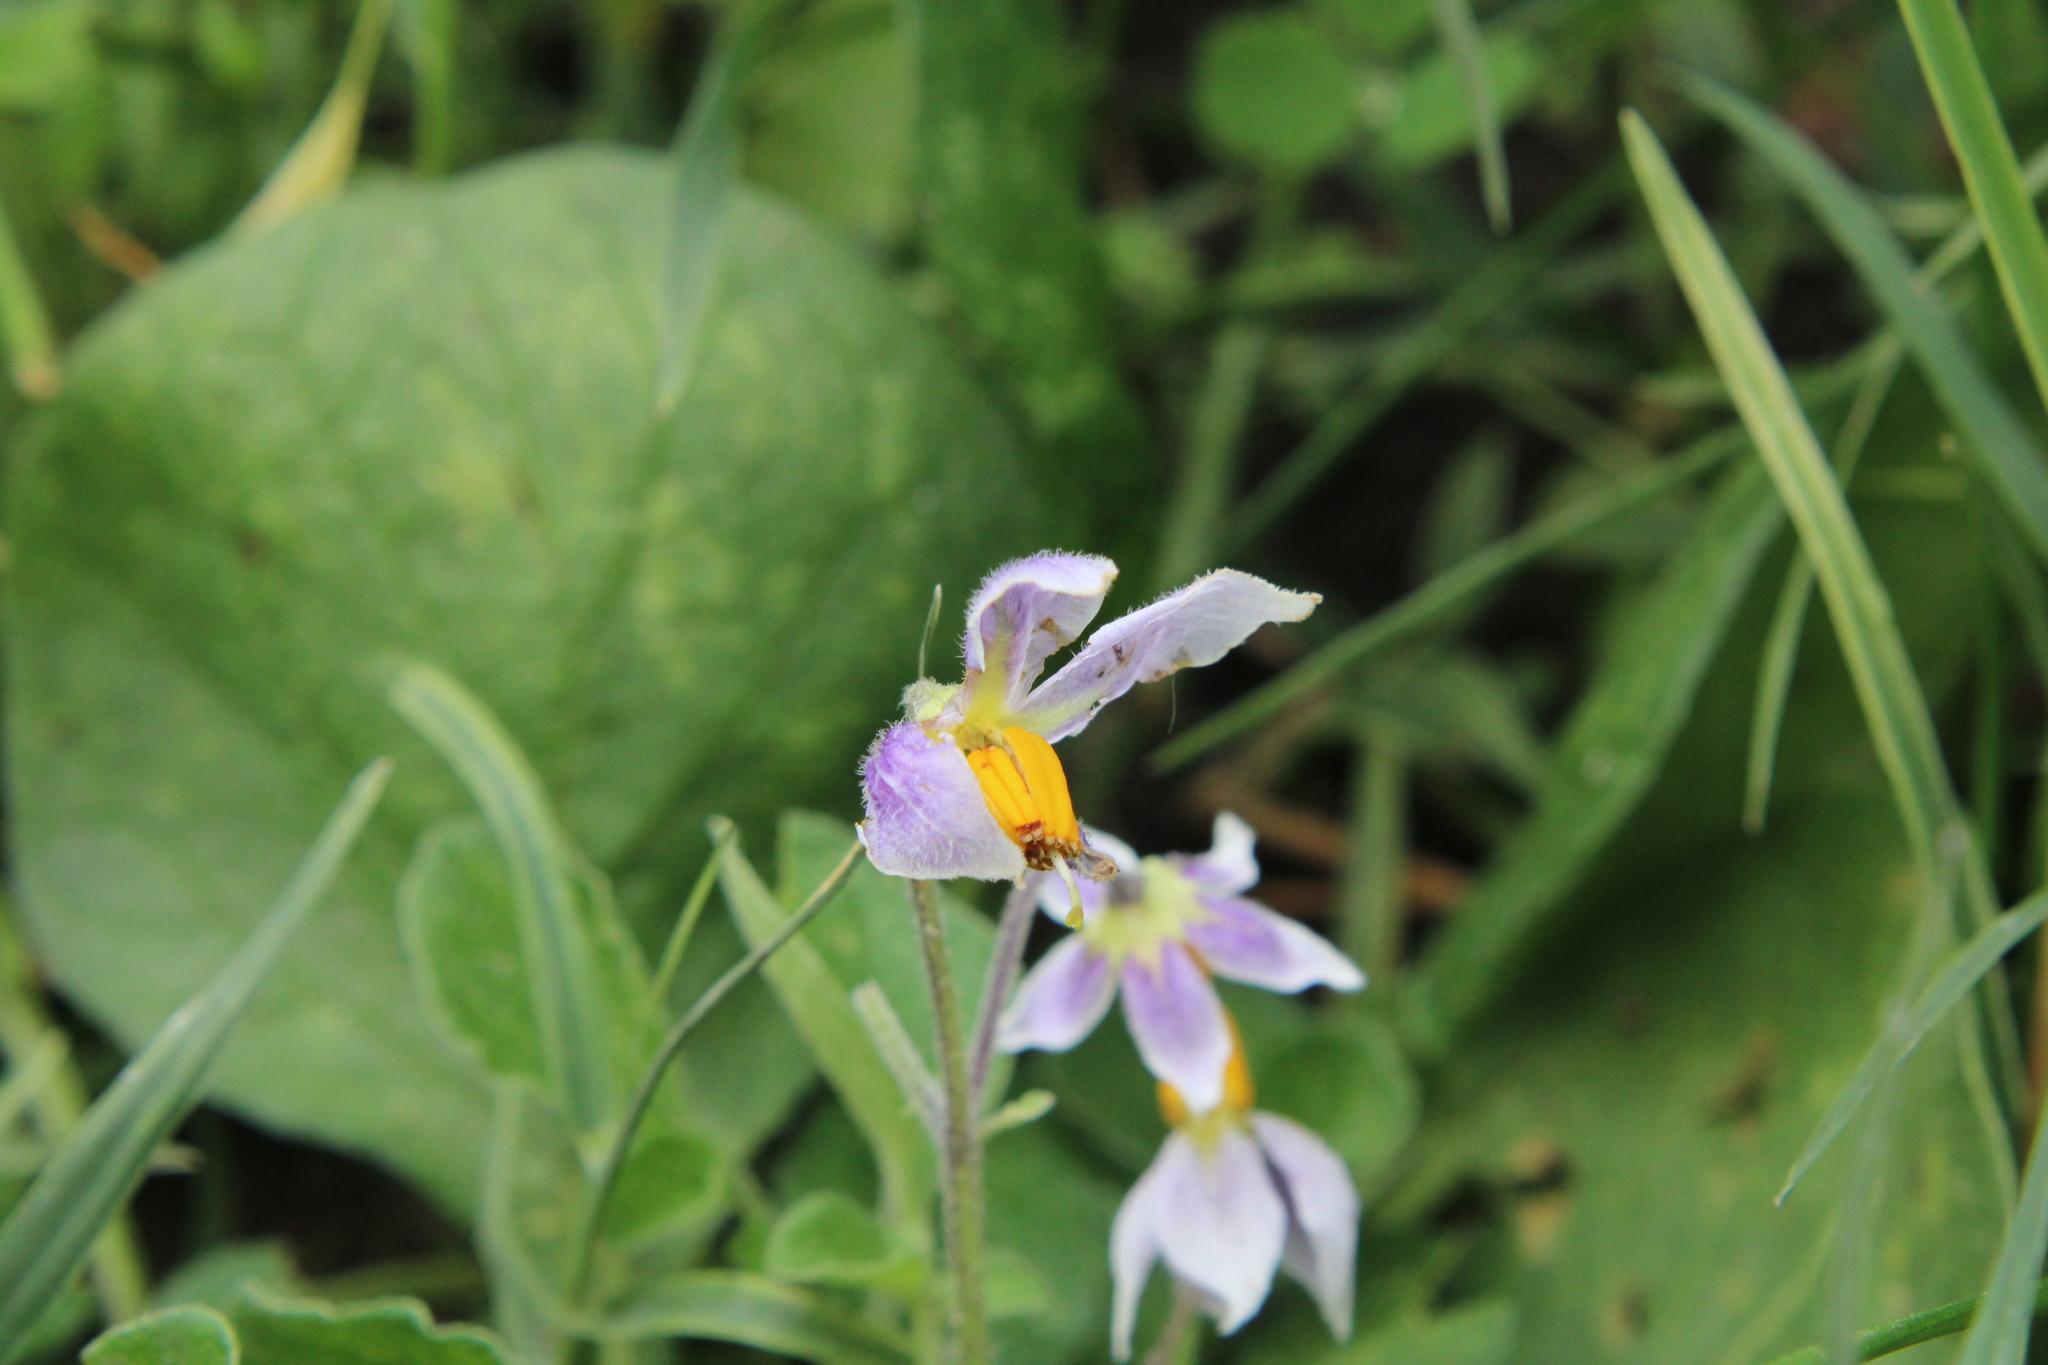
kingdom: Plantae
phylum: Tracheophyta
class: Magnoliopsida
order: Solanales
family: Solanaceae
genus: Solanum
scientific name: Solanum commersonii
